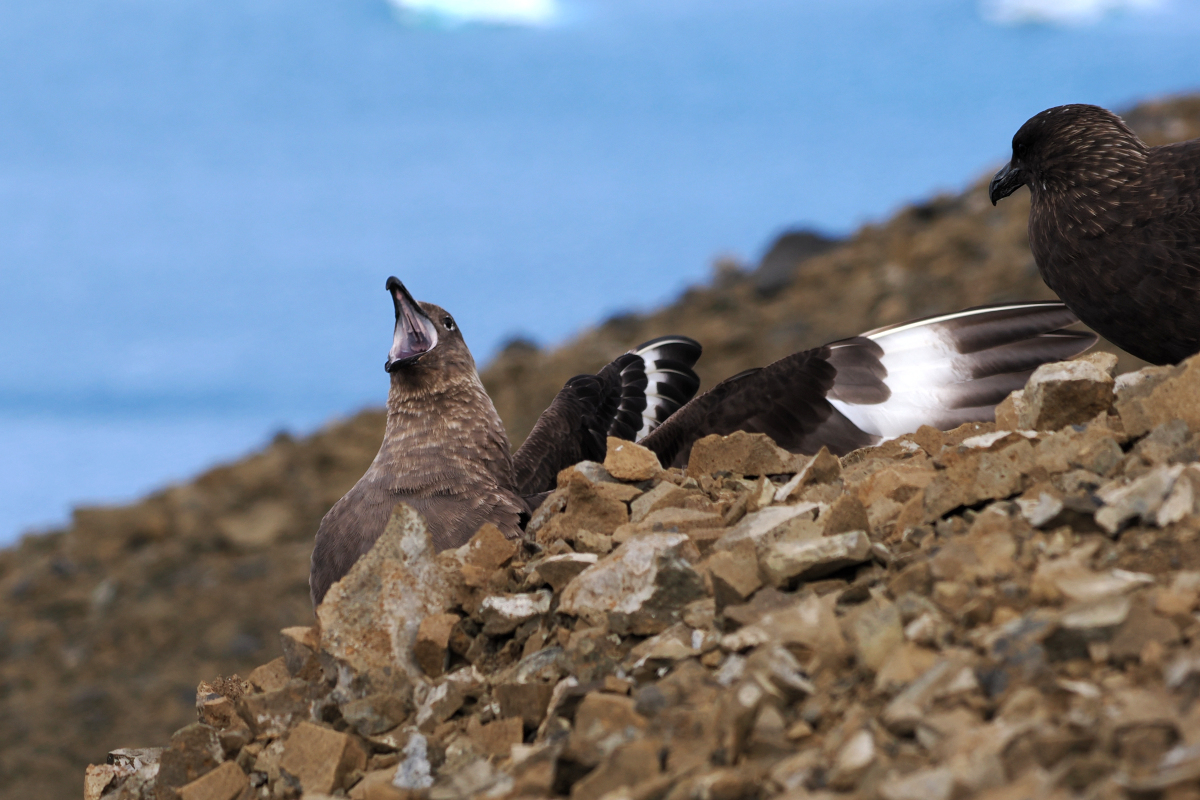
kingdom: Animalia
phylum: Chordata
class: Aves
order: Charadriiformes
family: Stercorariidae
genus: Stercorarius
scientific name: Stercorarius maccormicki
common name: South polar skua
